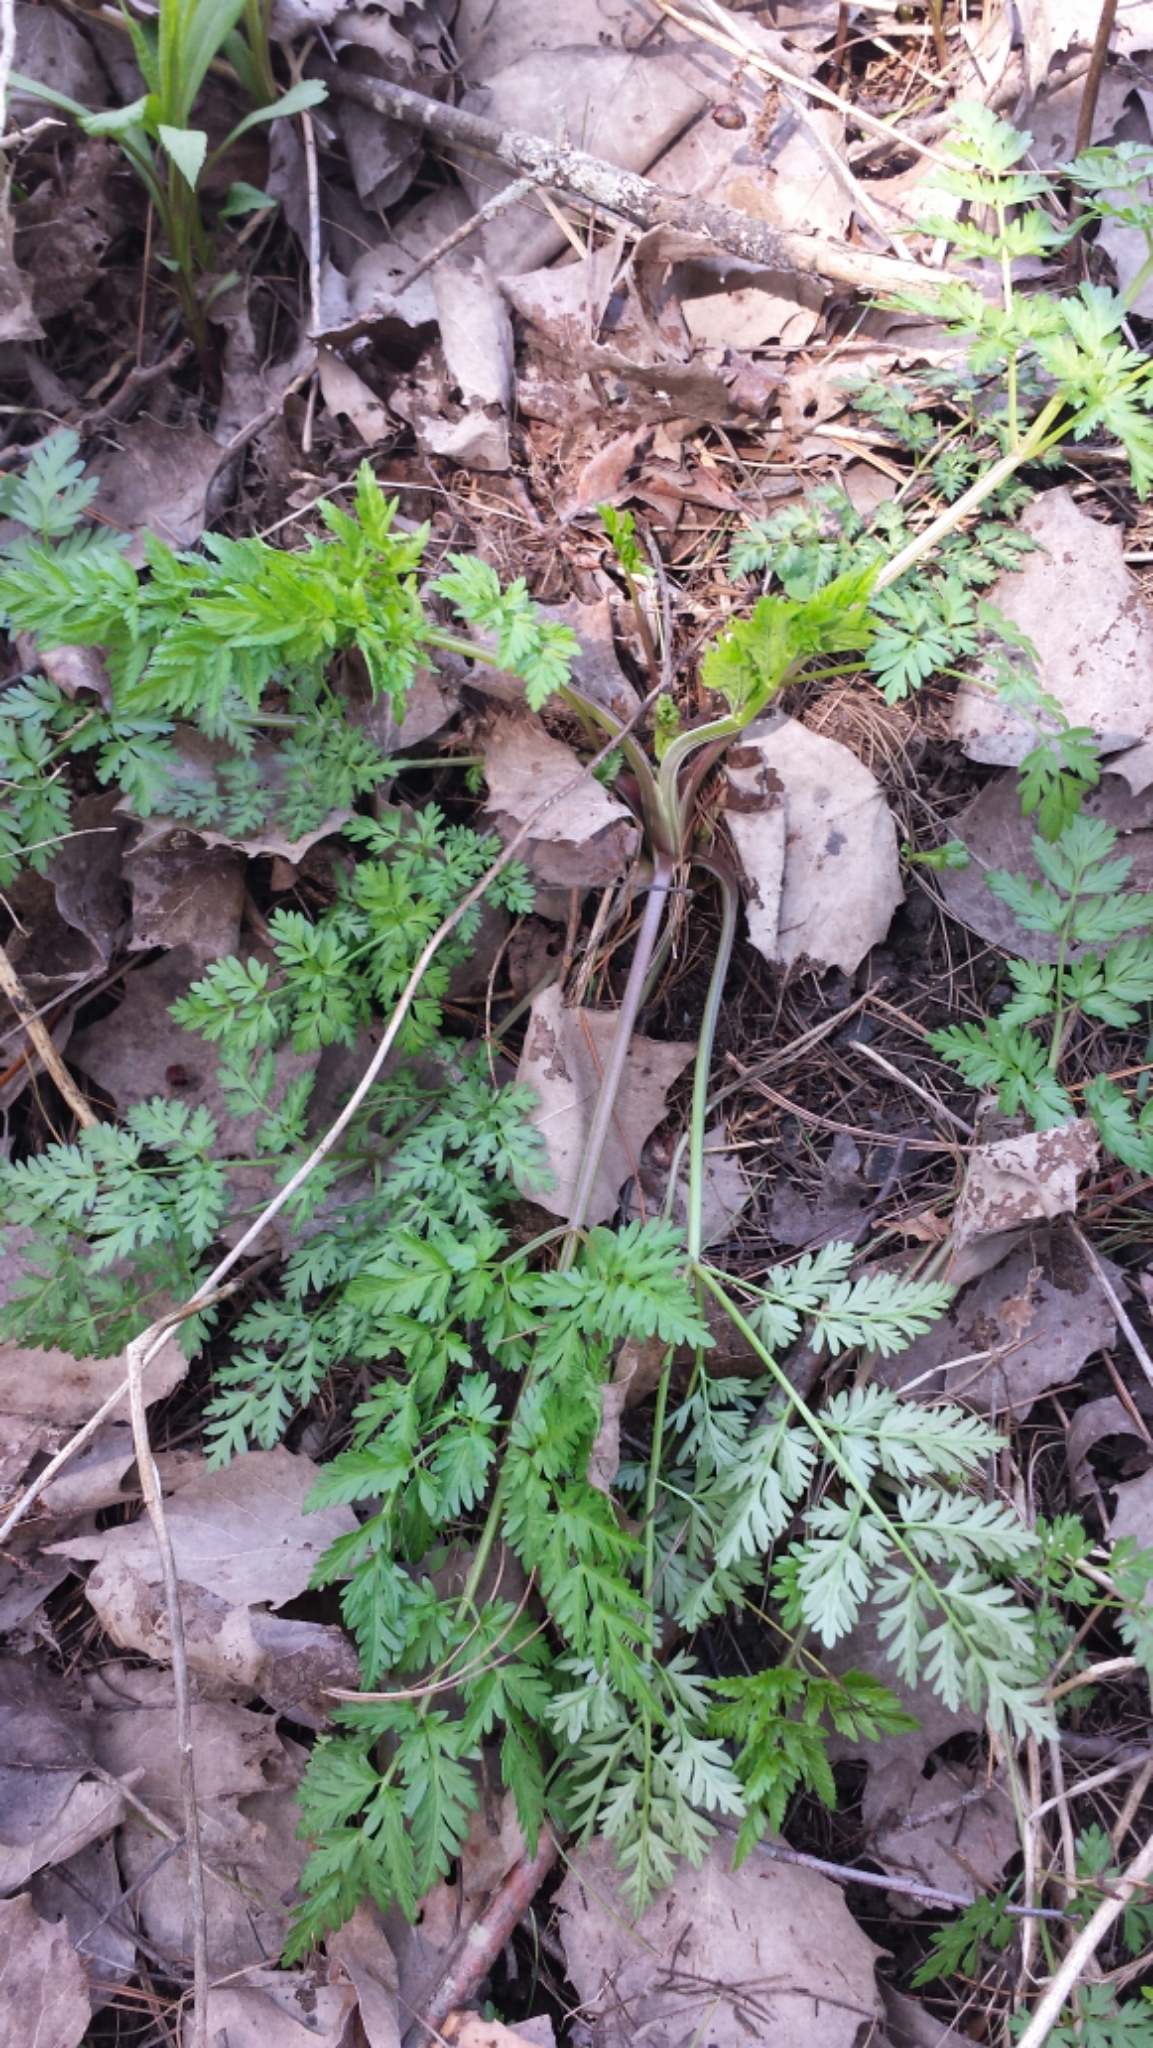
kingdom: Plantae
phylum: Tracheophyta
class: Magnoliopsida
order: Apiales
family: Apiaceae
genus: Anthriscus
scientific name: Anthriscus sylvestris
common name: Cow parsley
